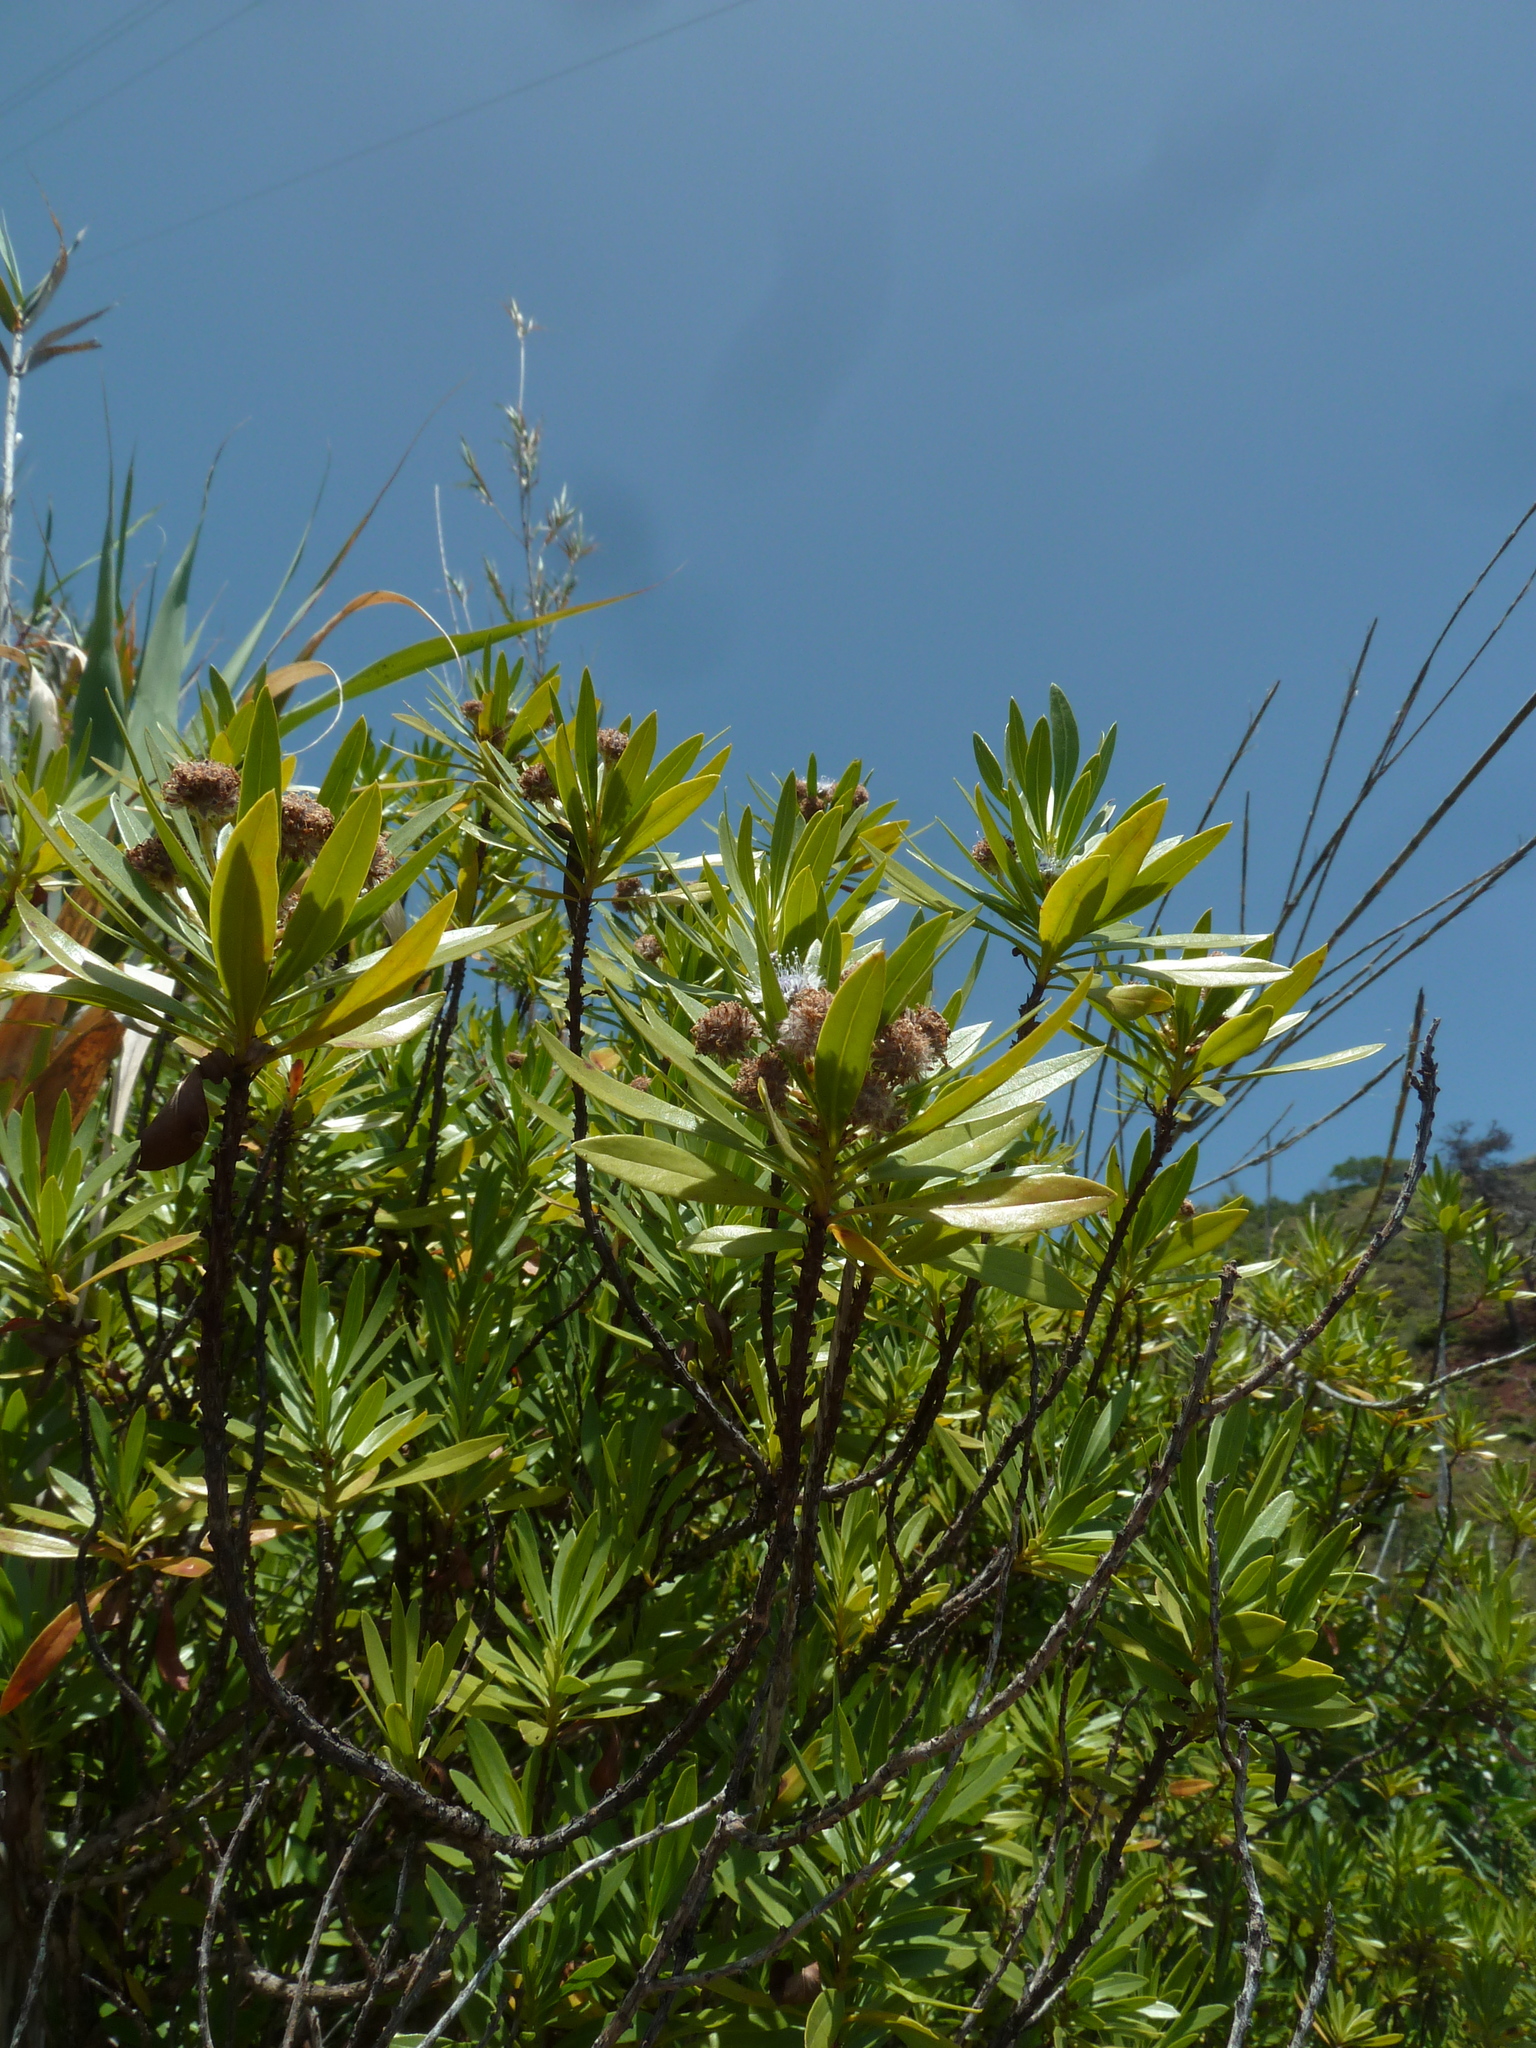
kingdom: Plantae
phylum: Tracheophyta
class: Magnoliopsida
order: Lamiales
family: Plantaginaceae
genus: Globularia
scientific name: Globularia salicina
